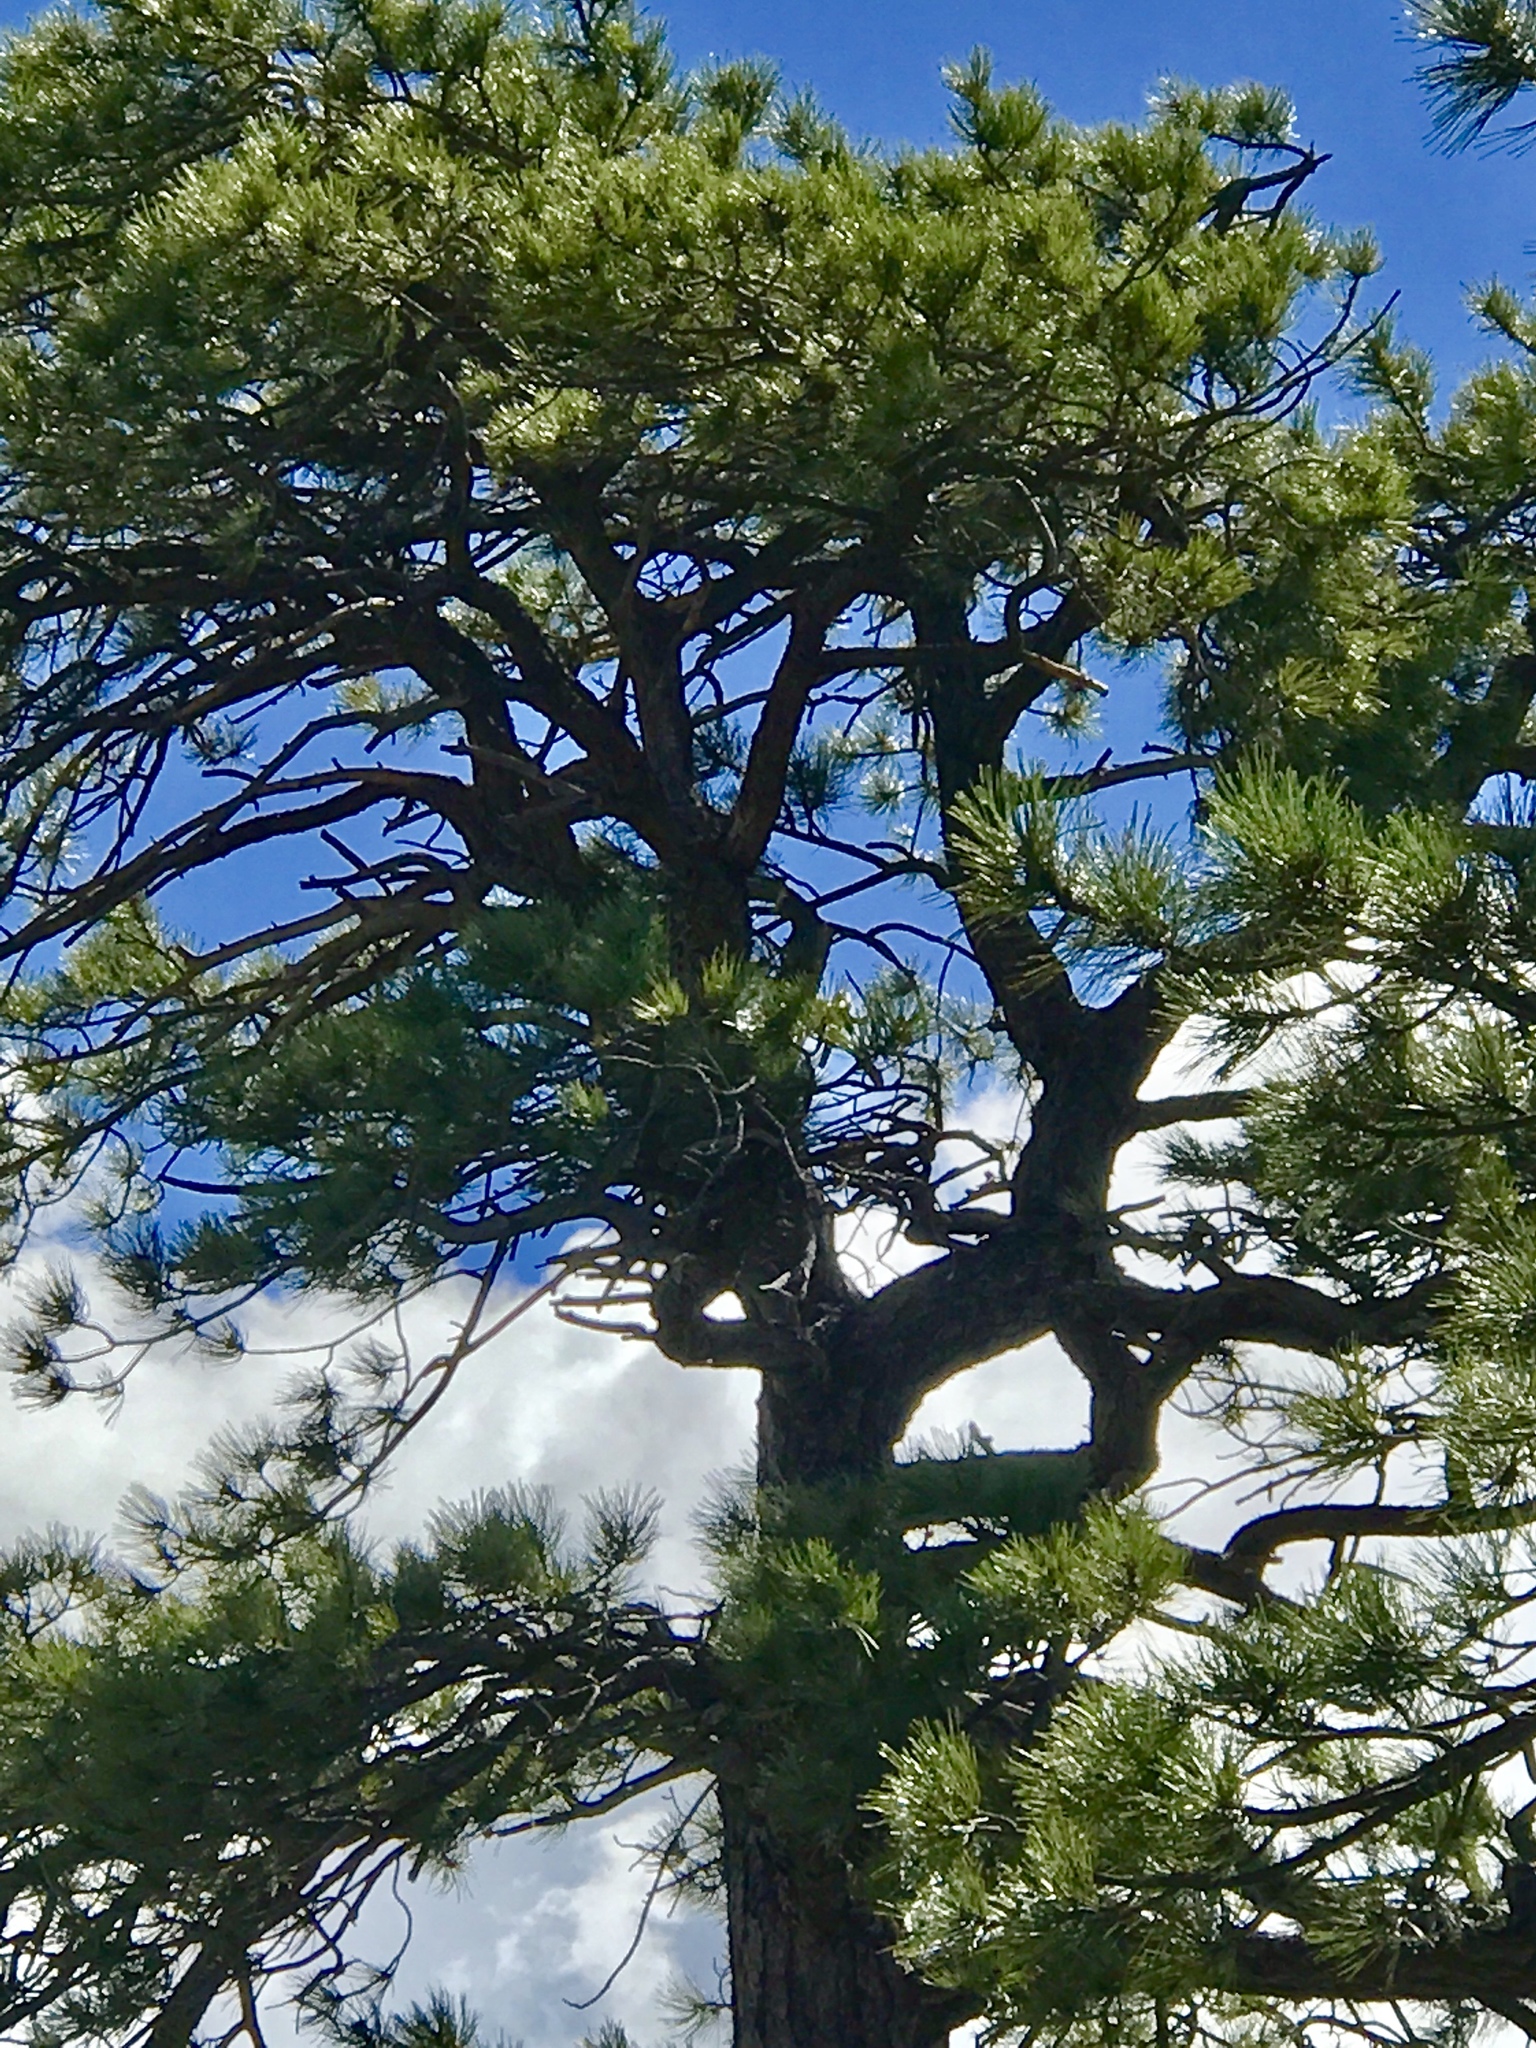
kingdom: Plantae
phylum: Tracheophyta
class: Pinopsida
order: Pinales
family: Pinaceae
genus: Pinus
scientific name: Pinus ponderosa
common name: Western yellow-pine
